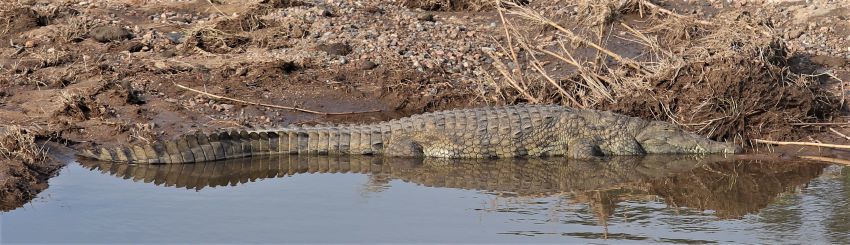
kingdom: Animalia
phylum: Chordata
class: Crocodylia
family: Crocodylidae
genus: Crocodylus
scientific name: Crocodylus niloticus
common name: Nile crocodile
